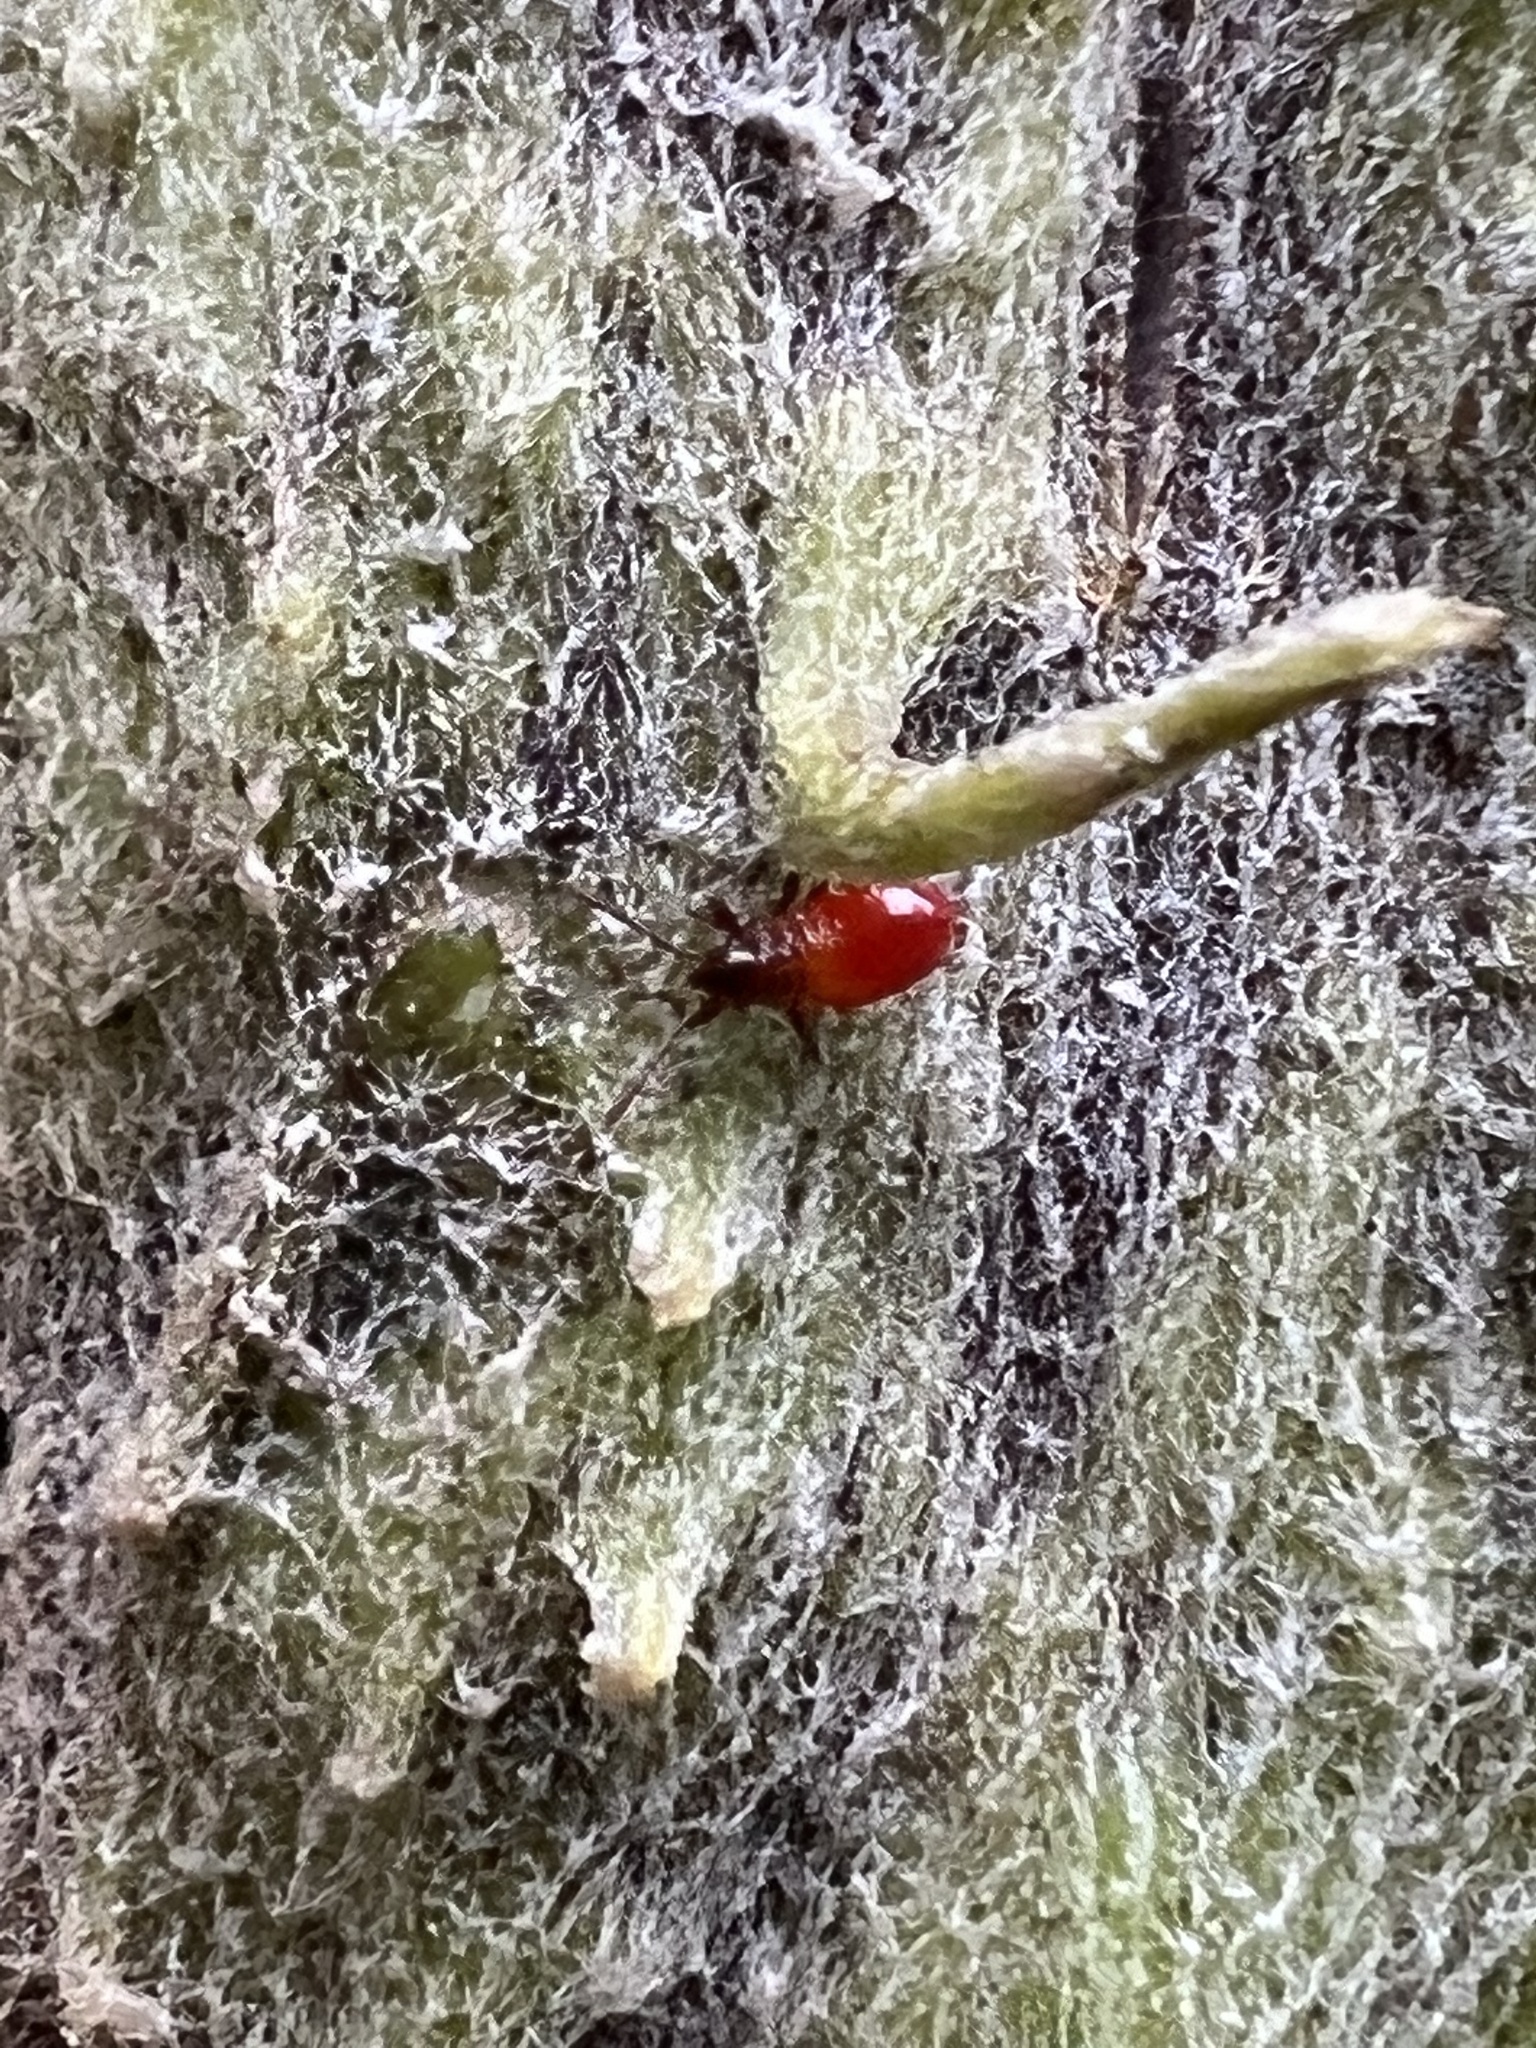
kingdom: Animalia
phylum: Arthropoda
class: Insecta
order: Hemiptera
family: Lygaeidae
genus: Oncopeltus
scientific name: Oncopeltus fasciatus
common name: Large milkweed bug
